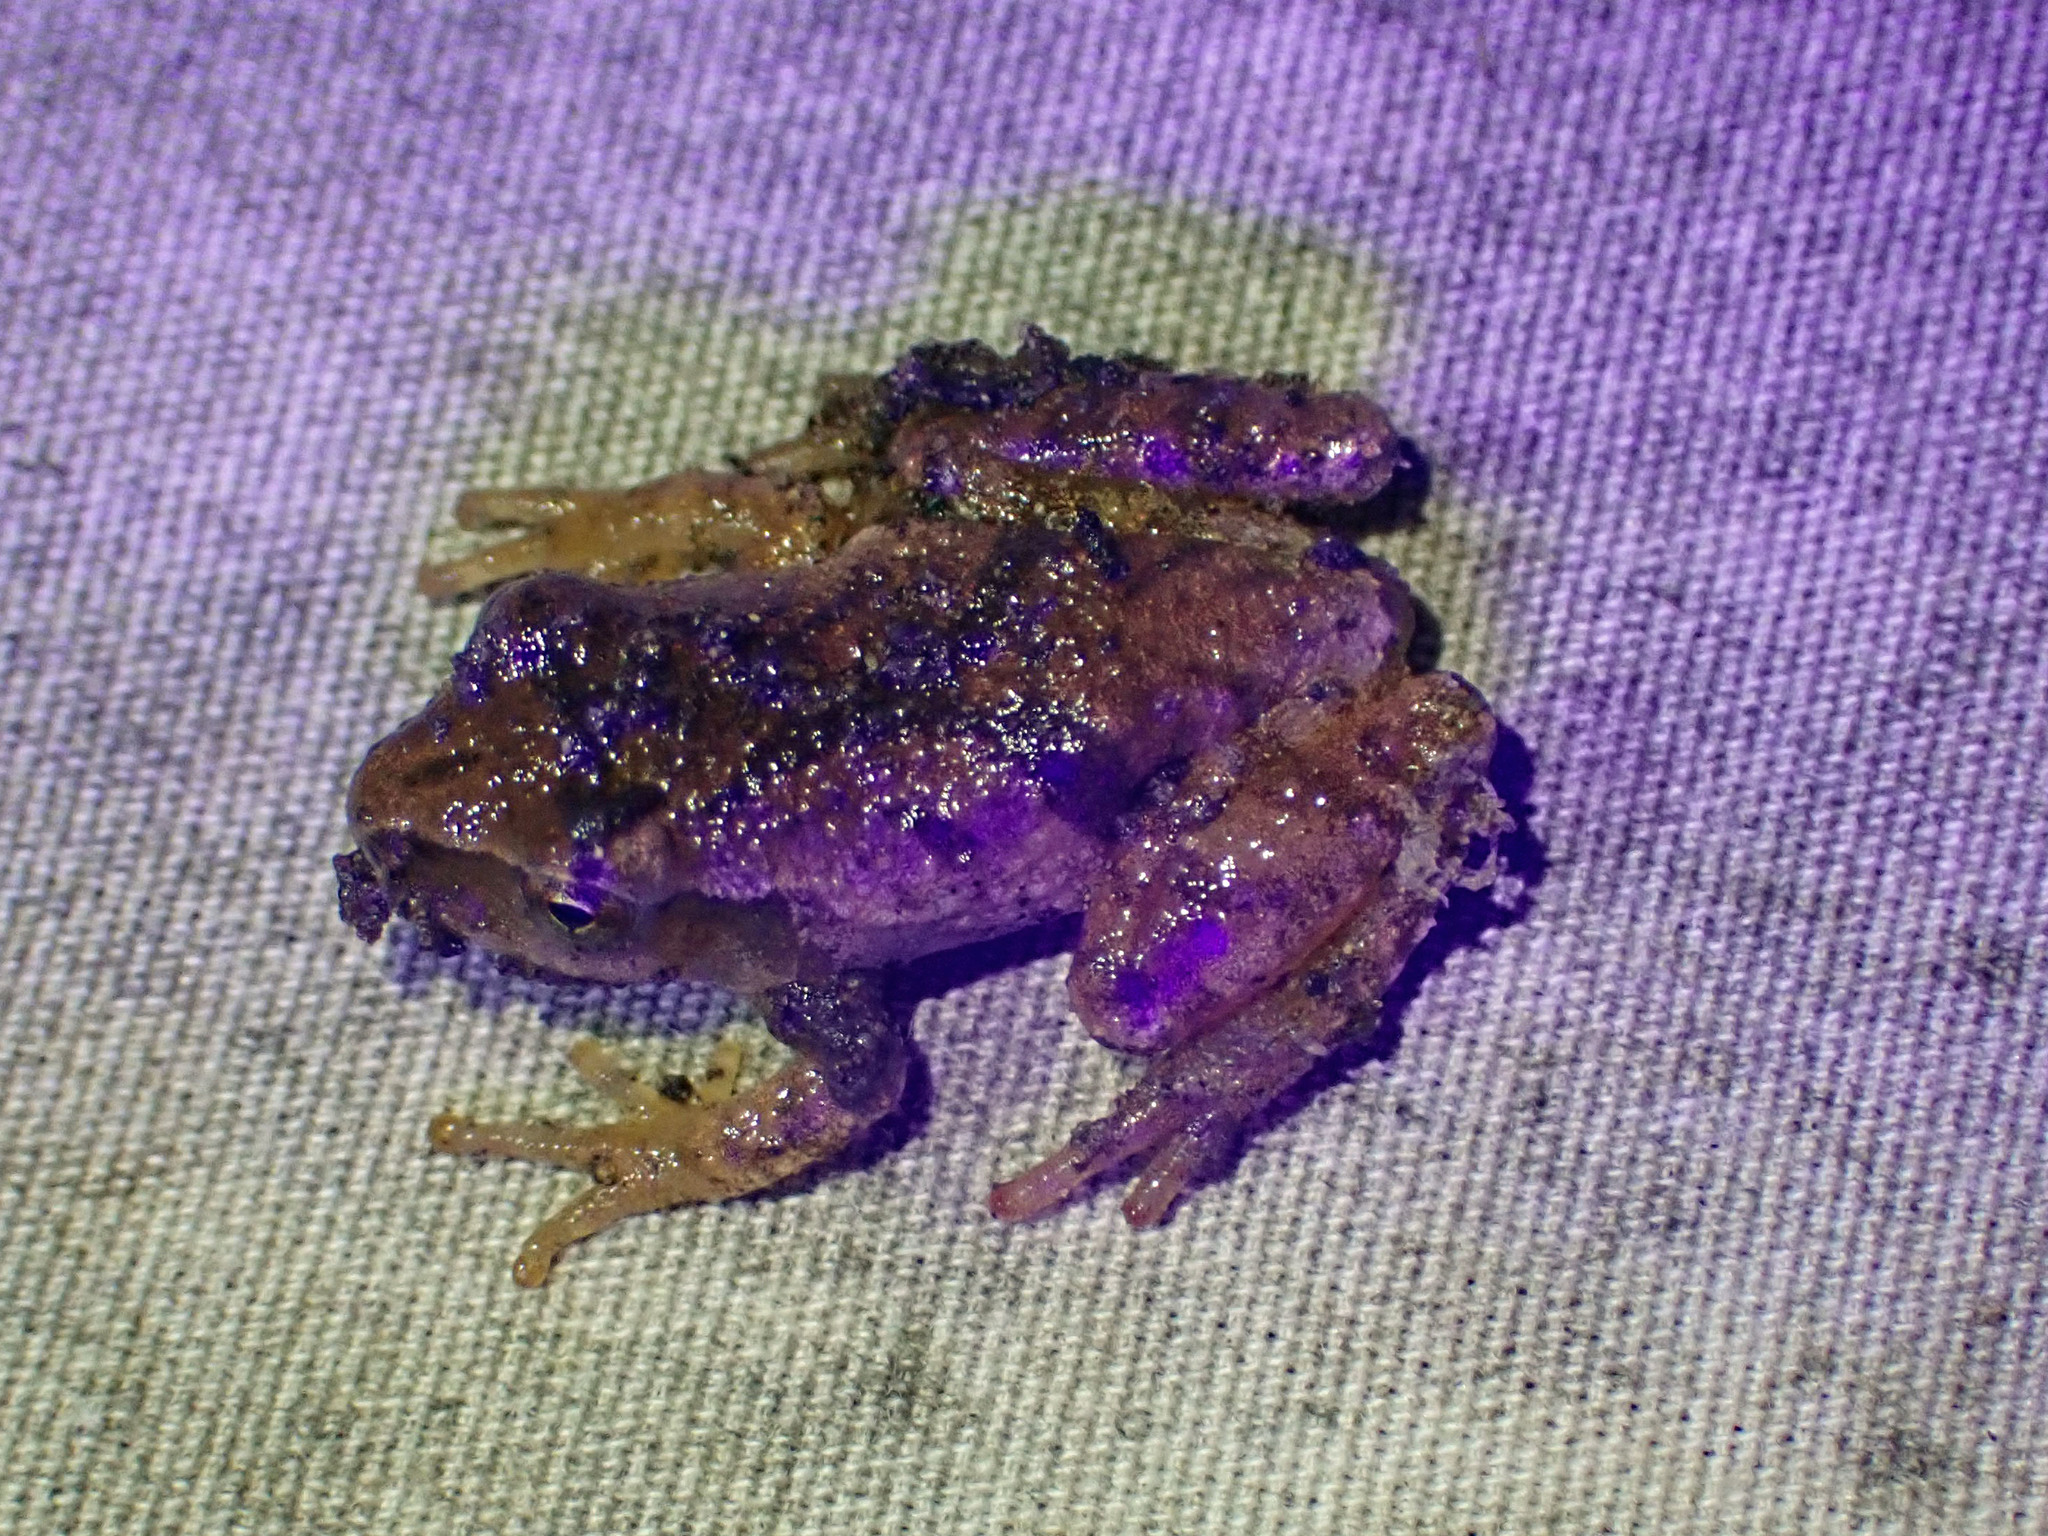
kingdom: Animalia
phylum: Chordata
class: Amphibia
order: Anura
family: Hylidae
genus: Pseudacris
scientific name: Pseudacris crucifer
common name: Spring peeper
